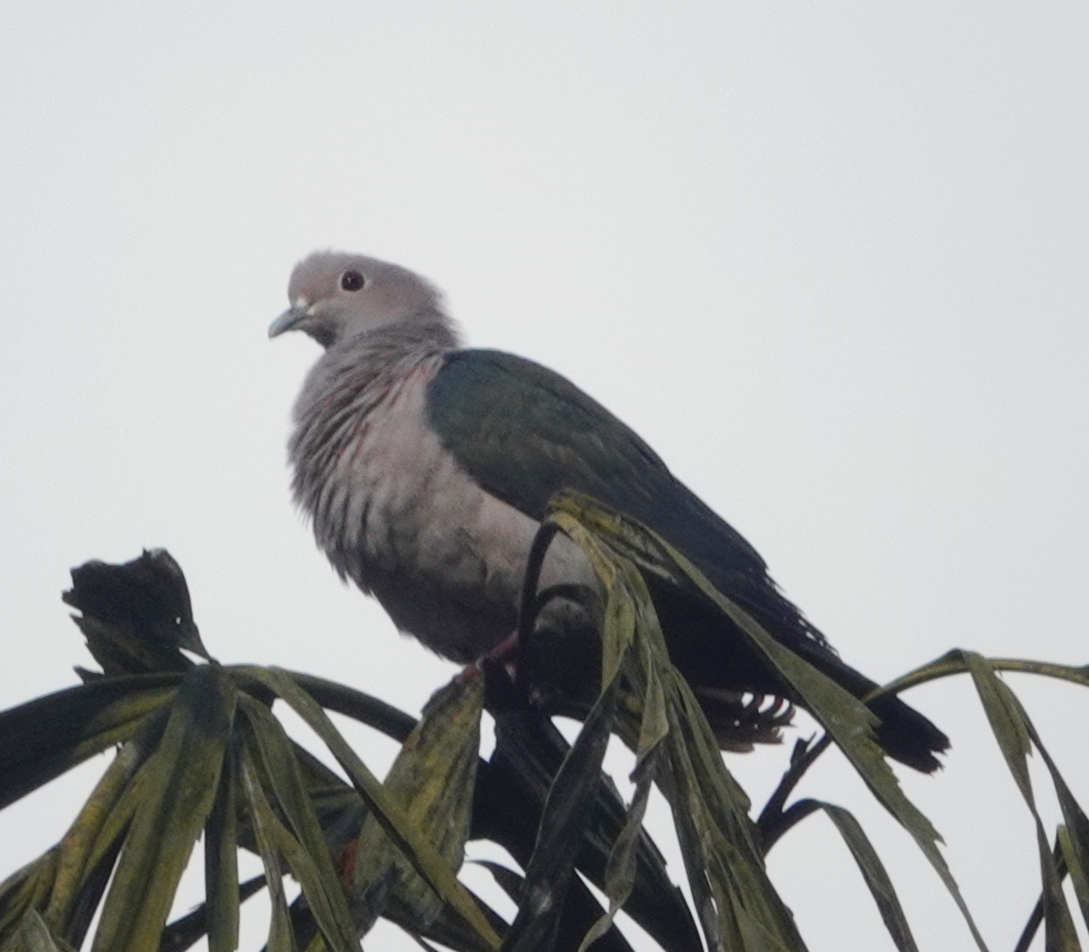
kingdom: Animalia
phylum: Chordata
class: Aves
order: Columbiformes
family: Columbidae
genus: Ducula
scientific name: Ducula aenea
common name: Green imperial pigeon
